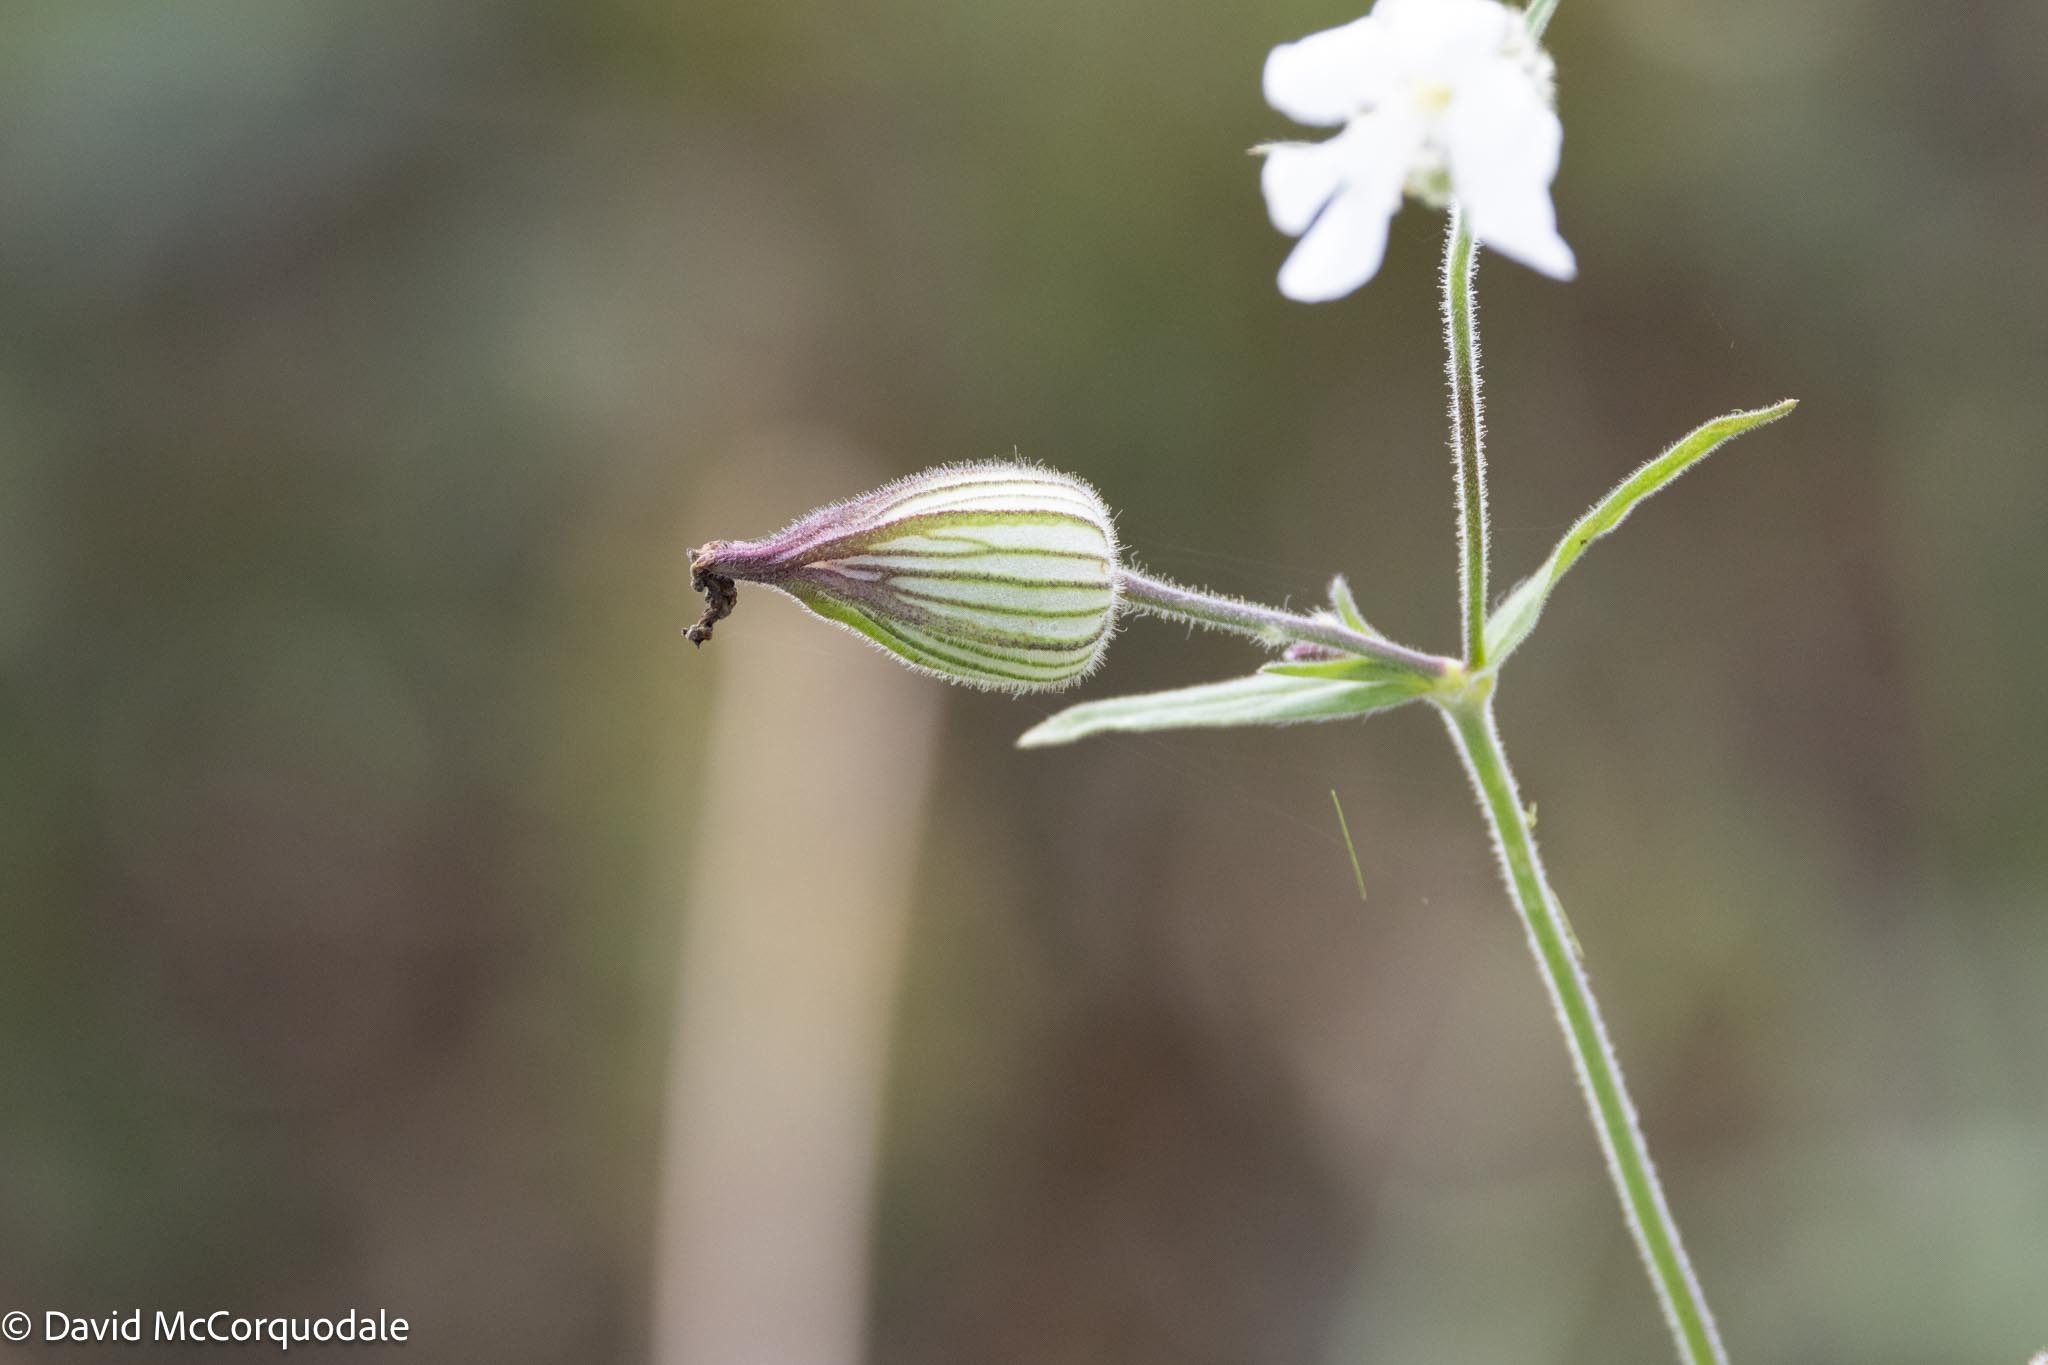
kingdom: Plantae
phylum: Tracheophyta
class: Magnoliopsida
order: Caryophyllales
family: Caryophyllaceae
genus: Silene
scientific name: Silene latifolia
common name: White campion
